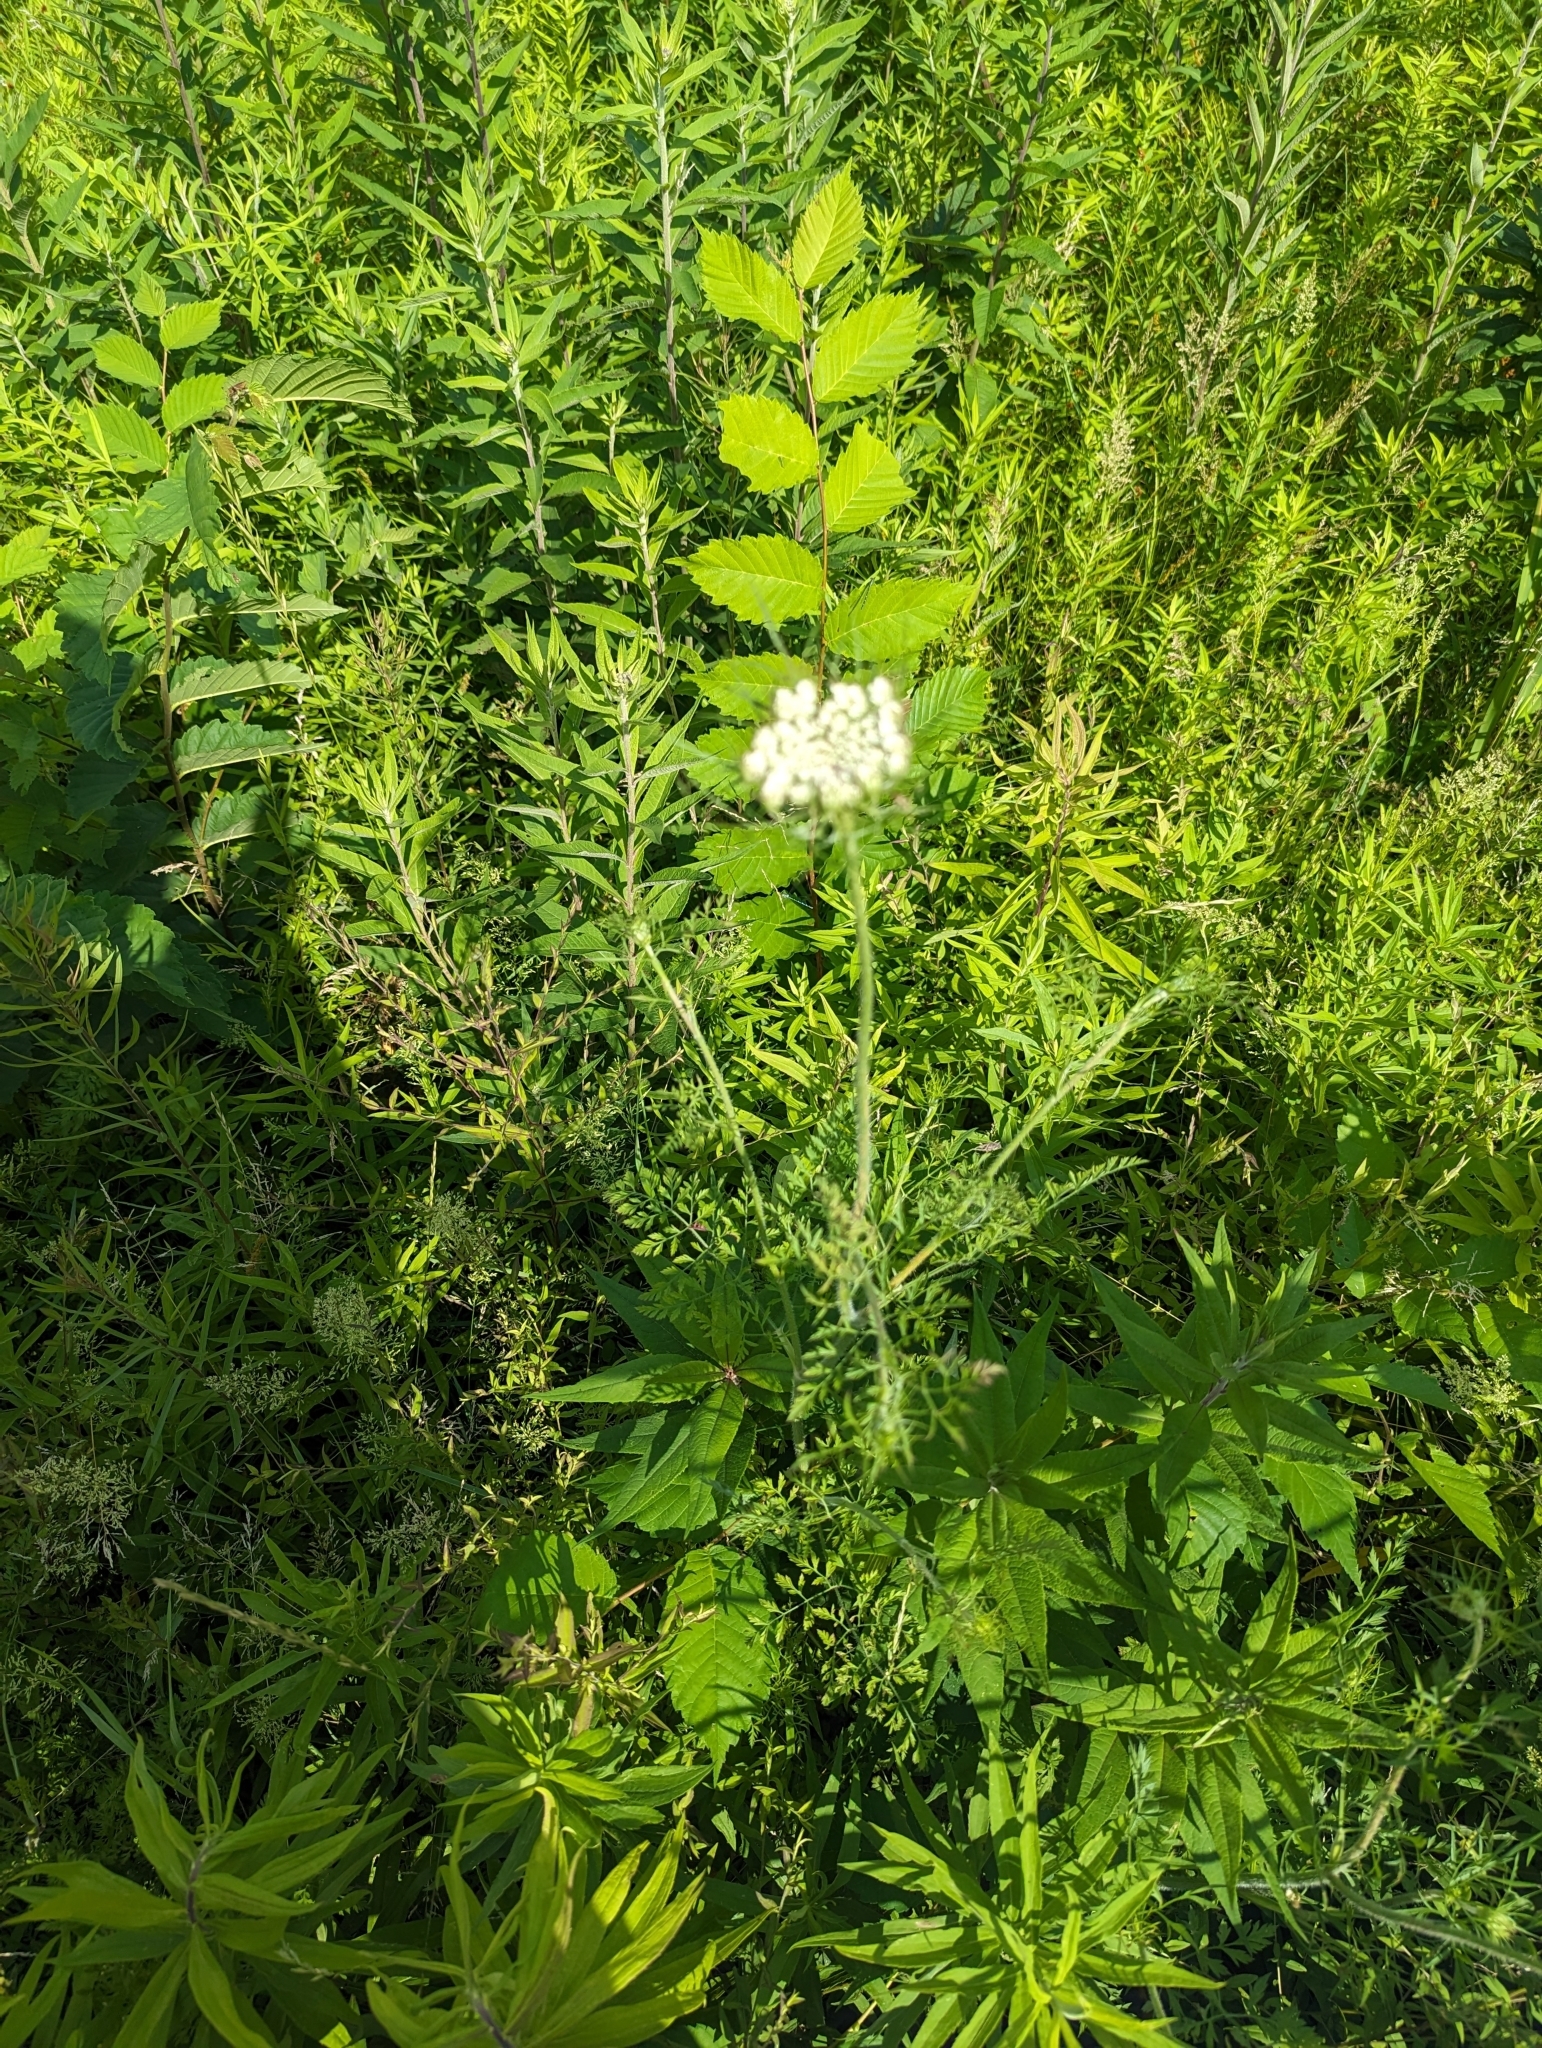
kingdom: Plantae
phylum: Tracheophyta
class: Magnoliopsida
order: Apiales
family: Apiaceae
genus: Daucus
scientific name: Daucus carota
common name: Wild carrot
